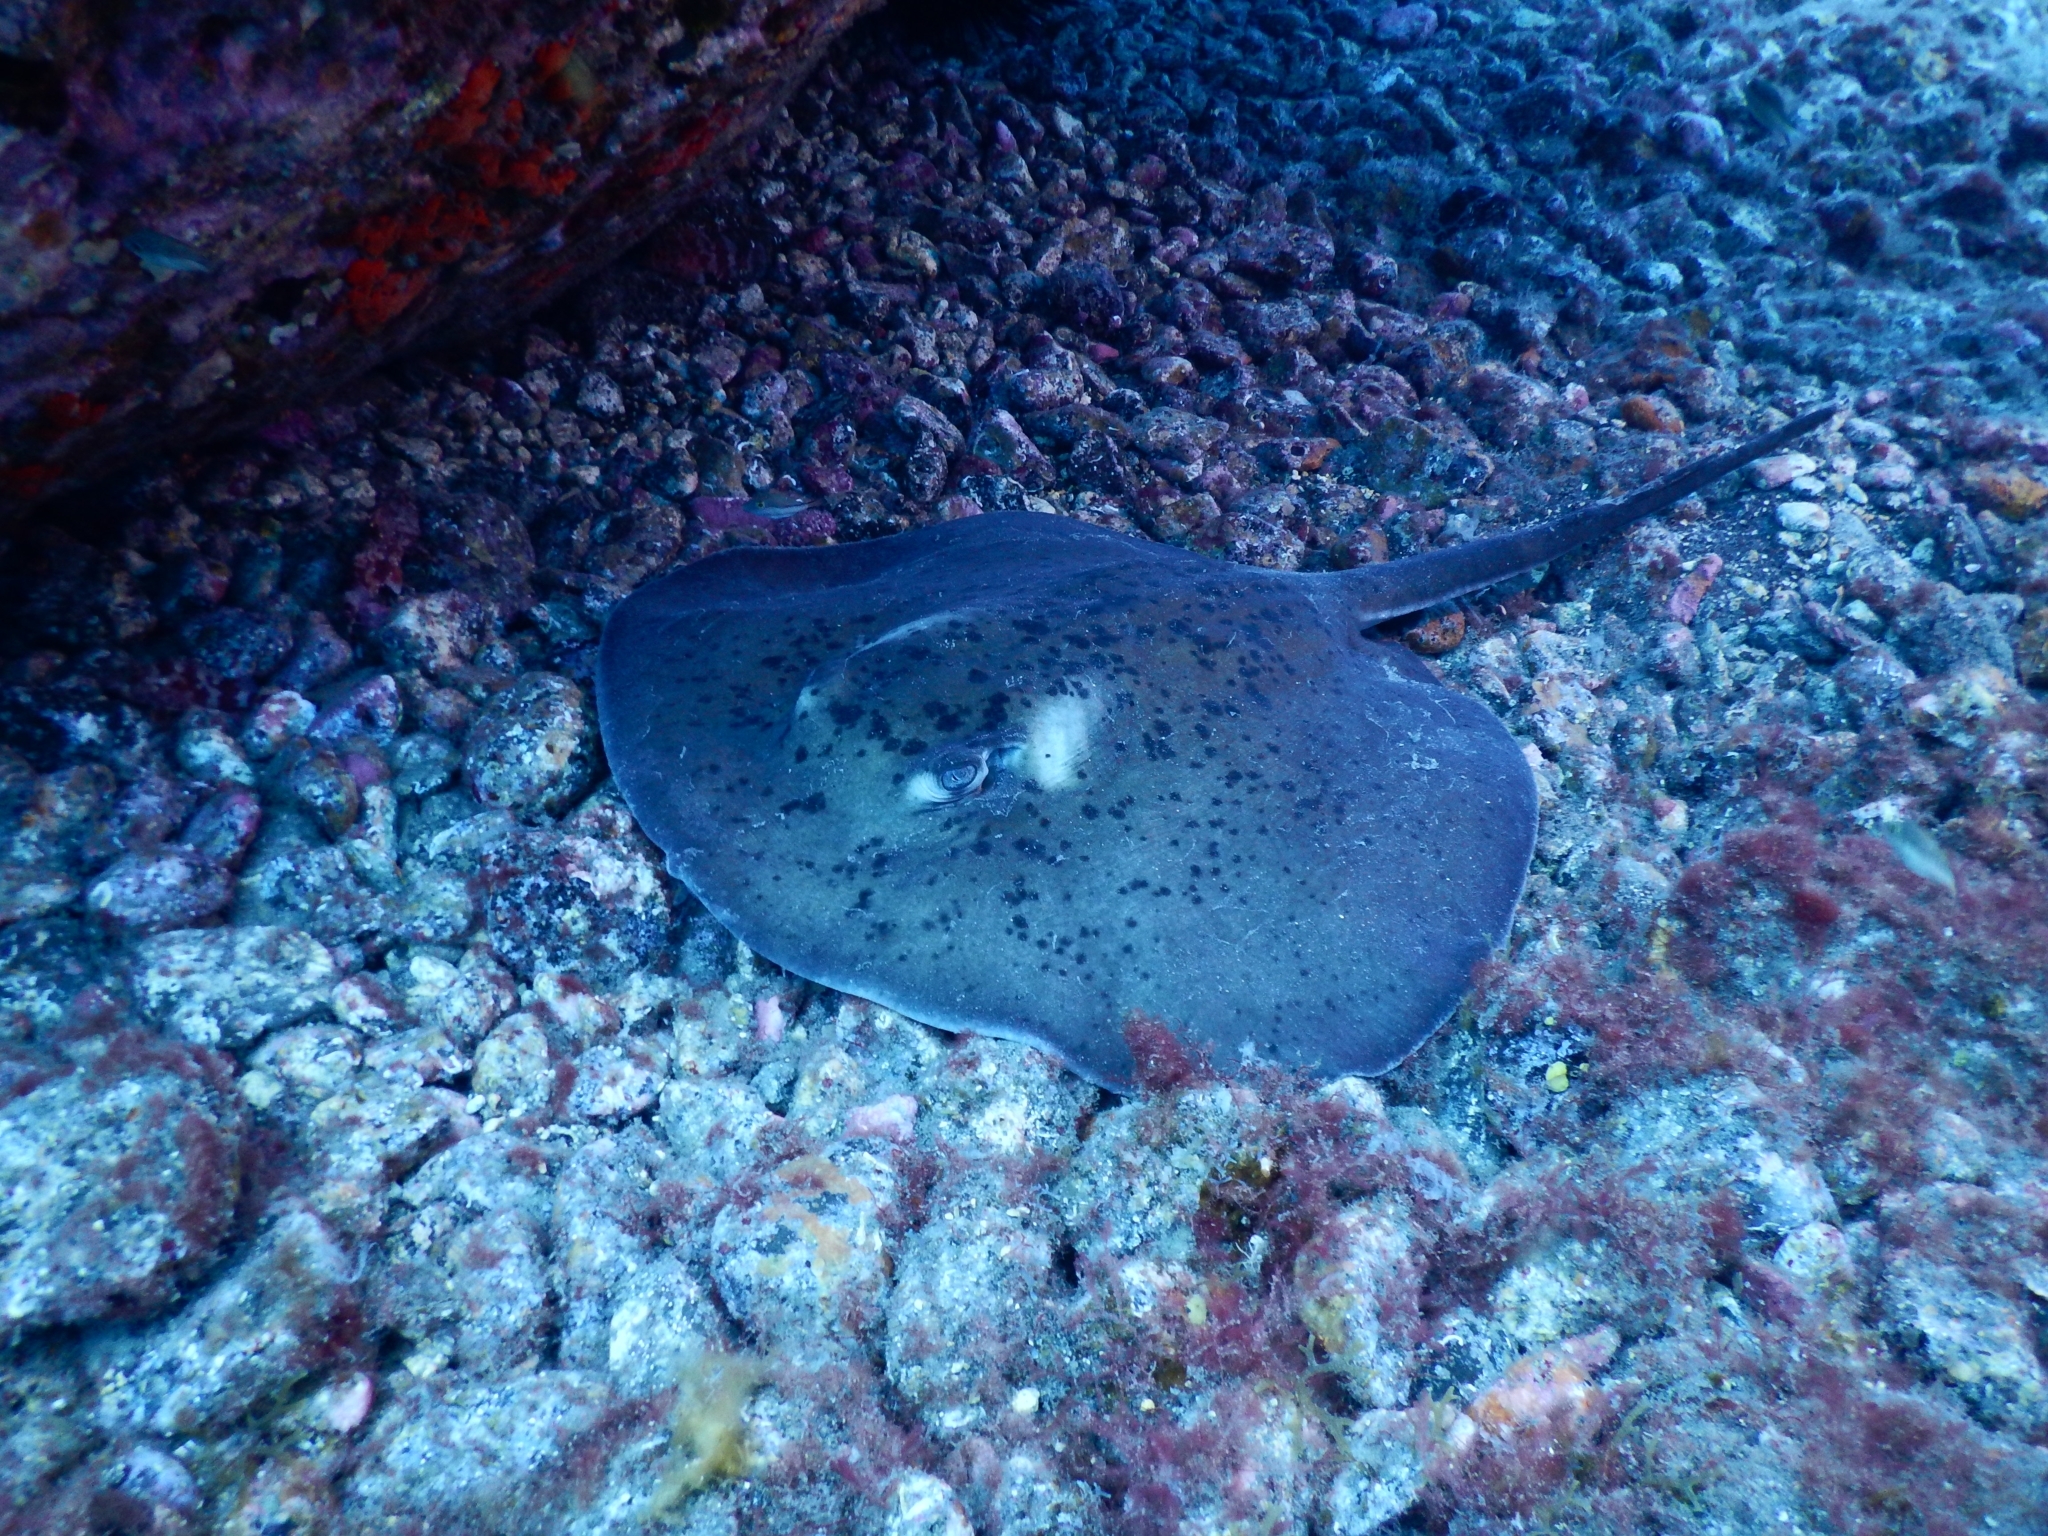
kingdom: Animalia
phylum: Chordata
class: Elasmobranchii
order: Myliobatiformes
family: Dasyatidae
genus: Taeniura
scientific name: Taeniura grabata
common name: Round stingray
